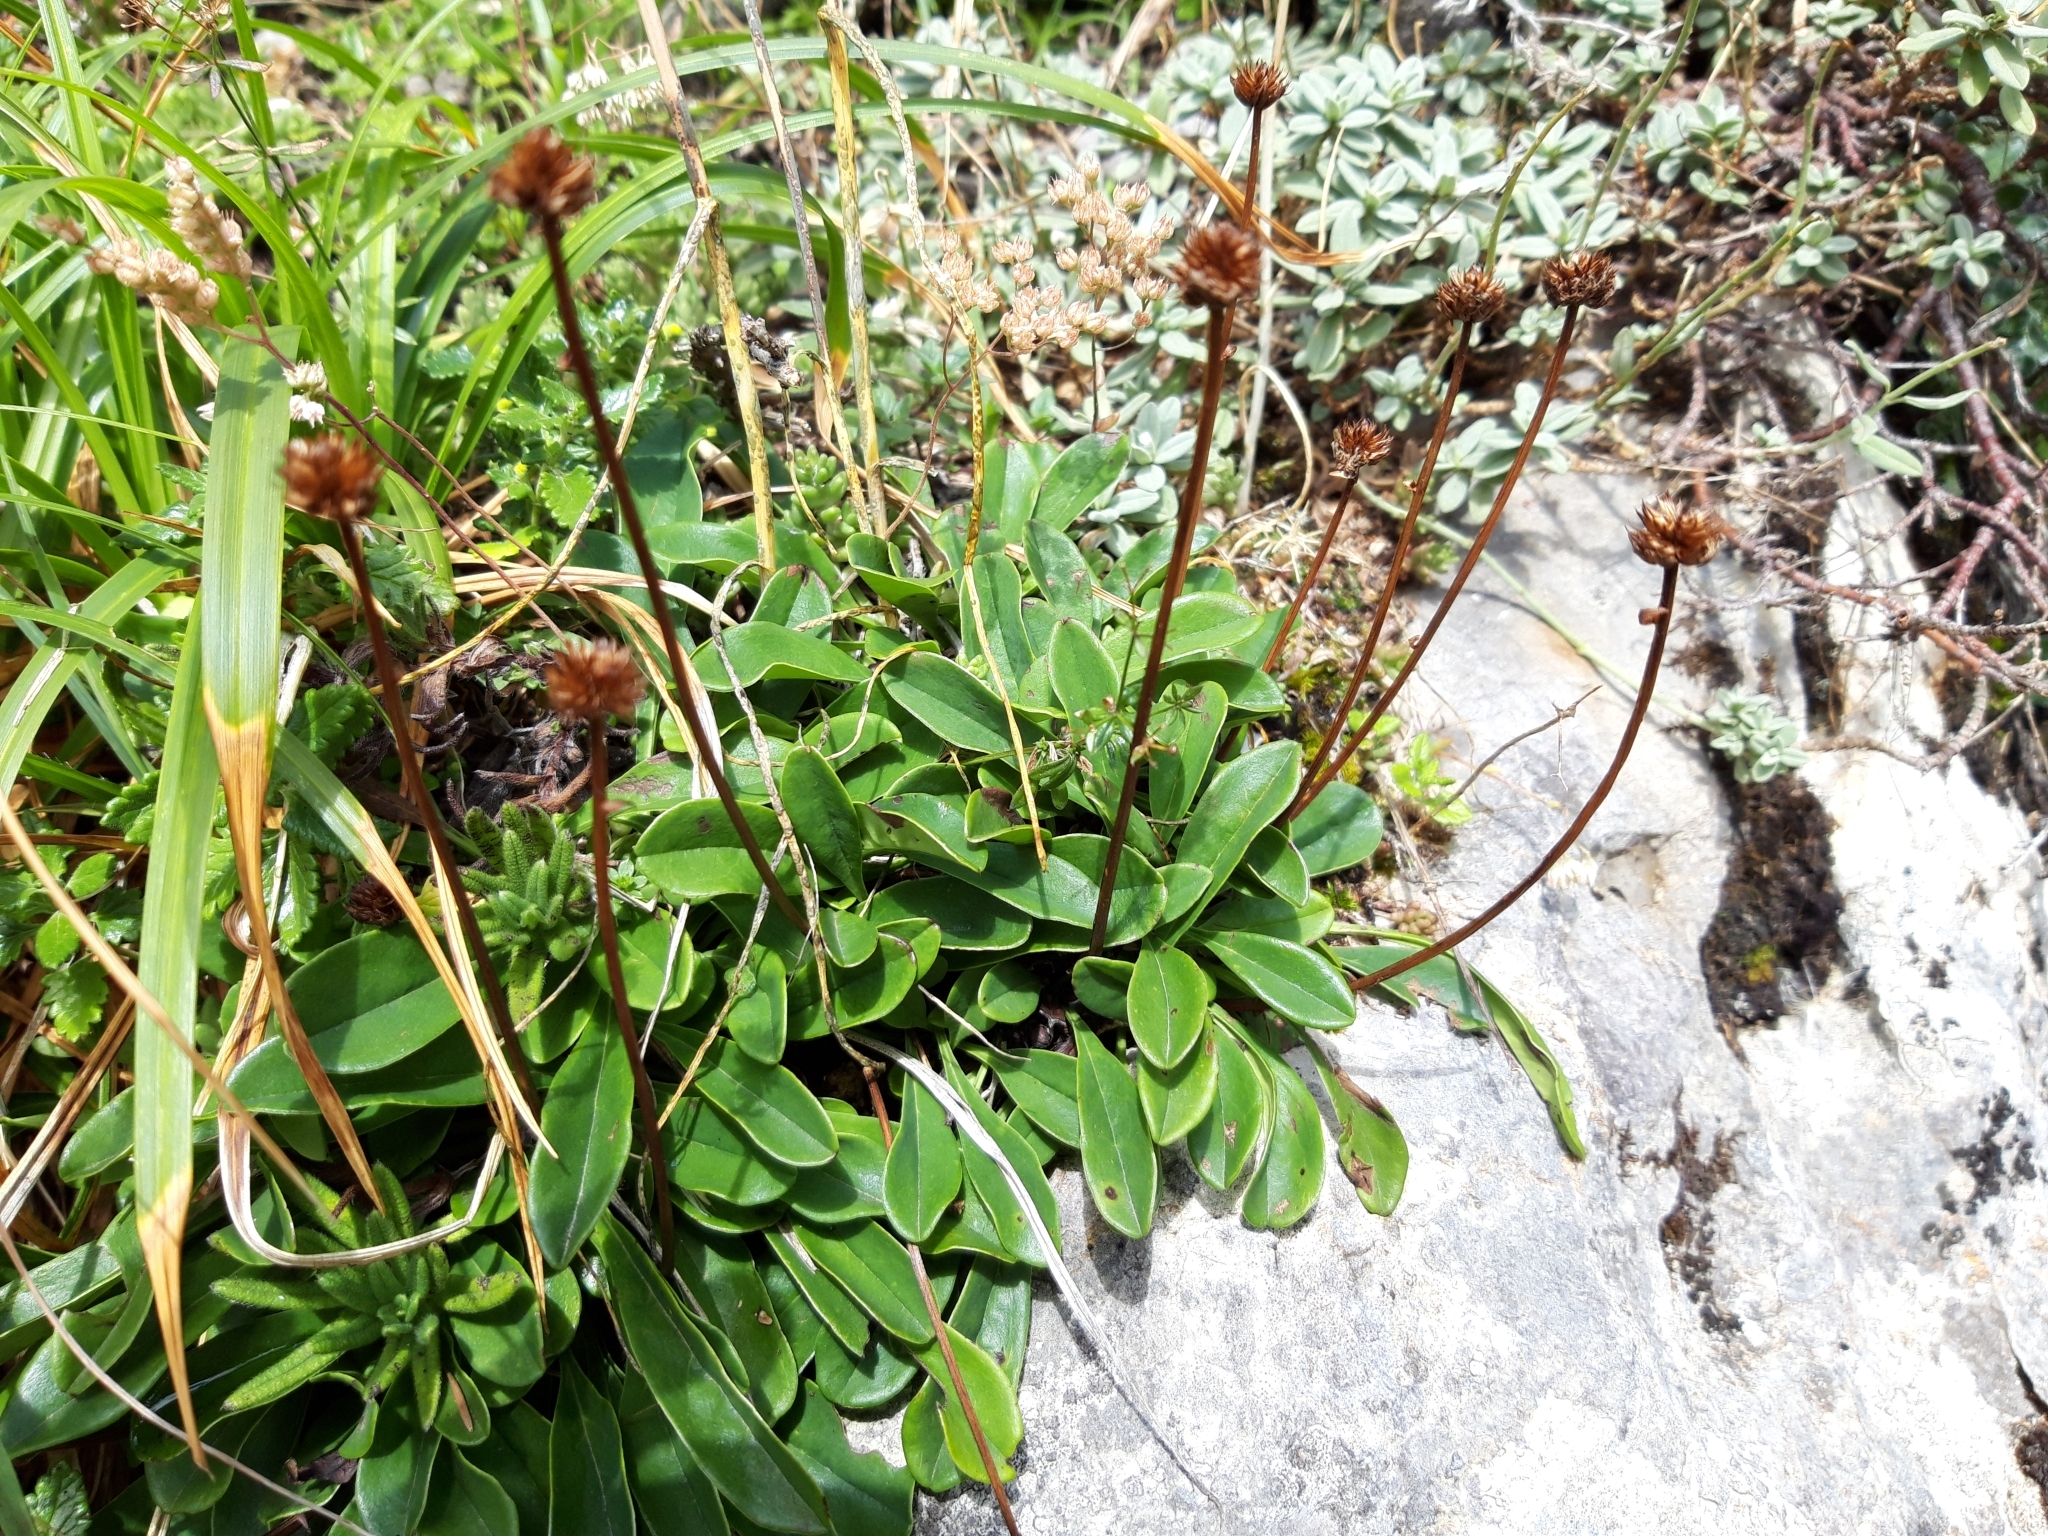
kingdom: Plantae
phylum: Tracheophyta
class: Magnoliopsida
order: Lamiales
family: Plantaginaceae
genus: Globularia
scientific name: Globularia nudicaulis
